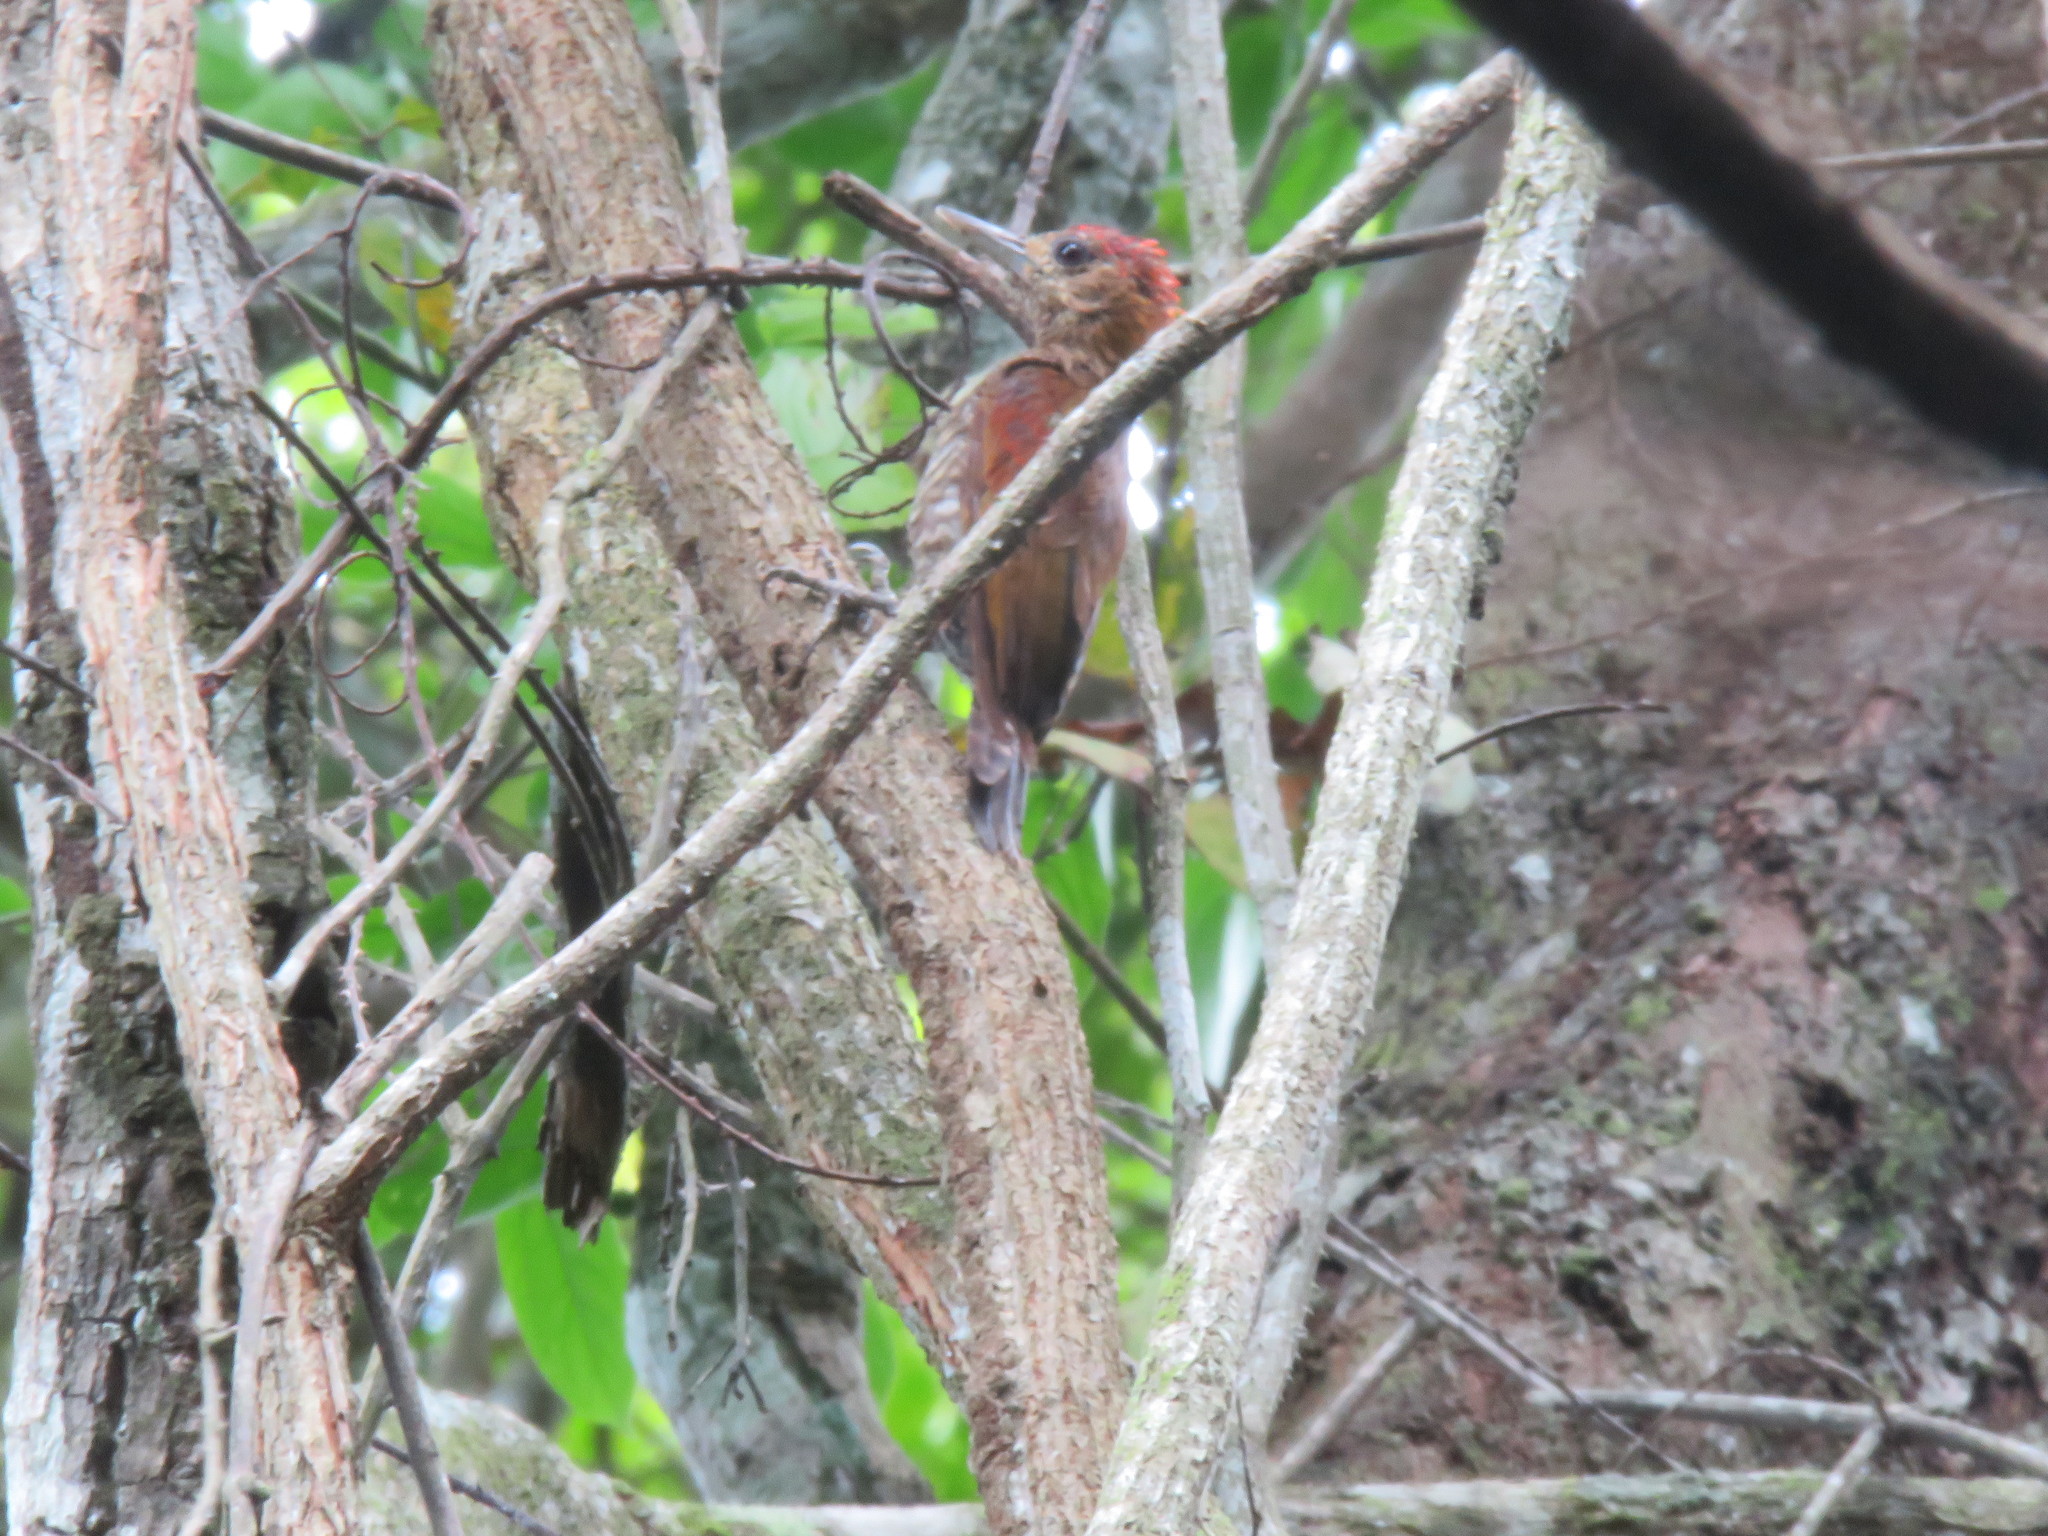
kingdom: Animalia
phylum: Chordata
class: Aves
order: Piciformes
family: Picidae
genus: Veniliornis
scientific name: Veniliornis affinis
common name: Red-stained woodpecker
